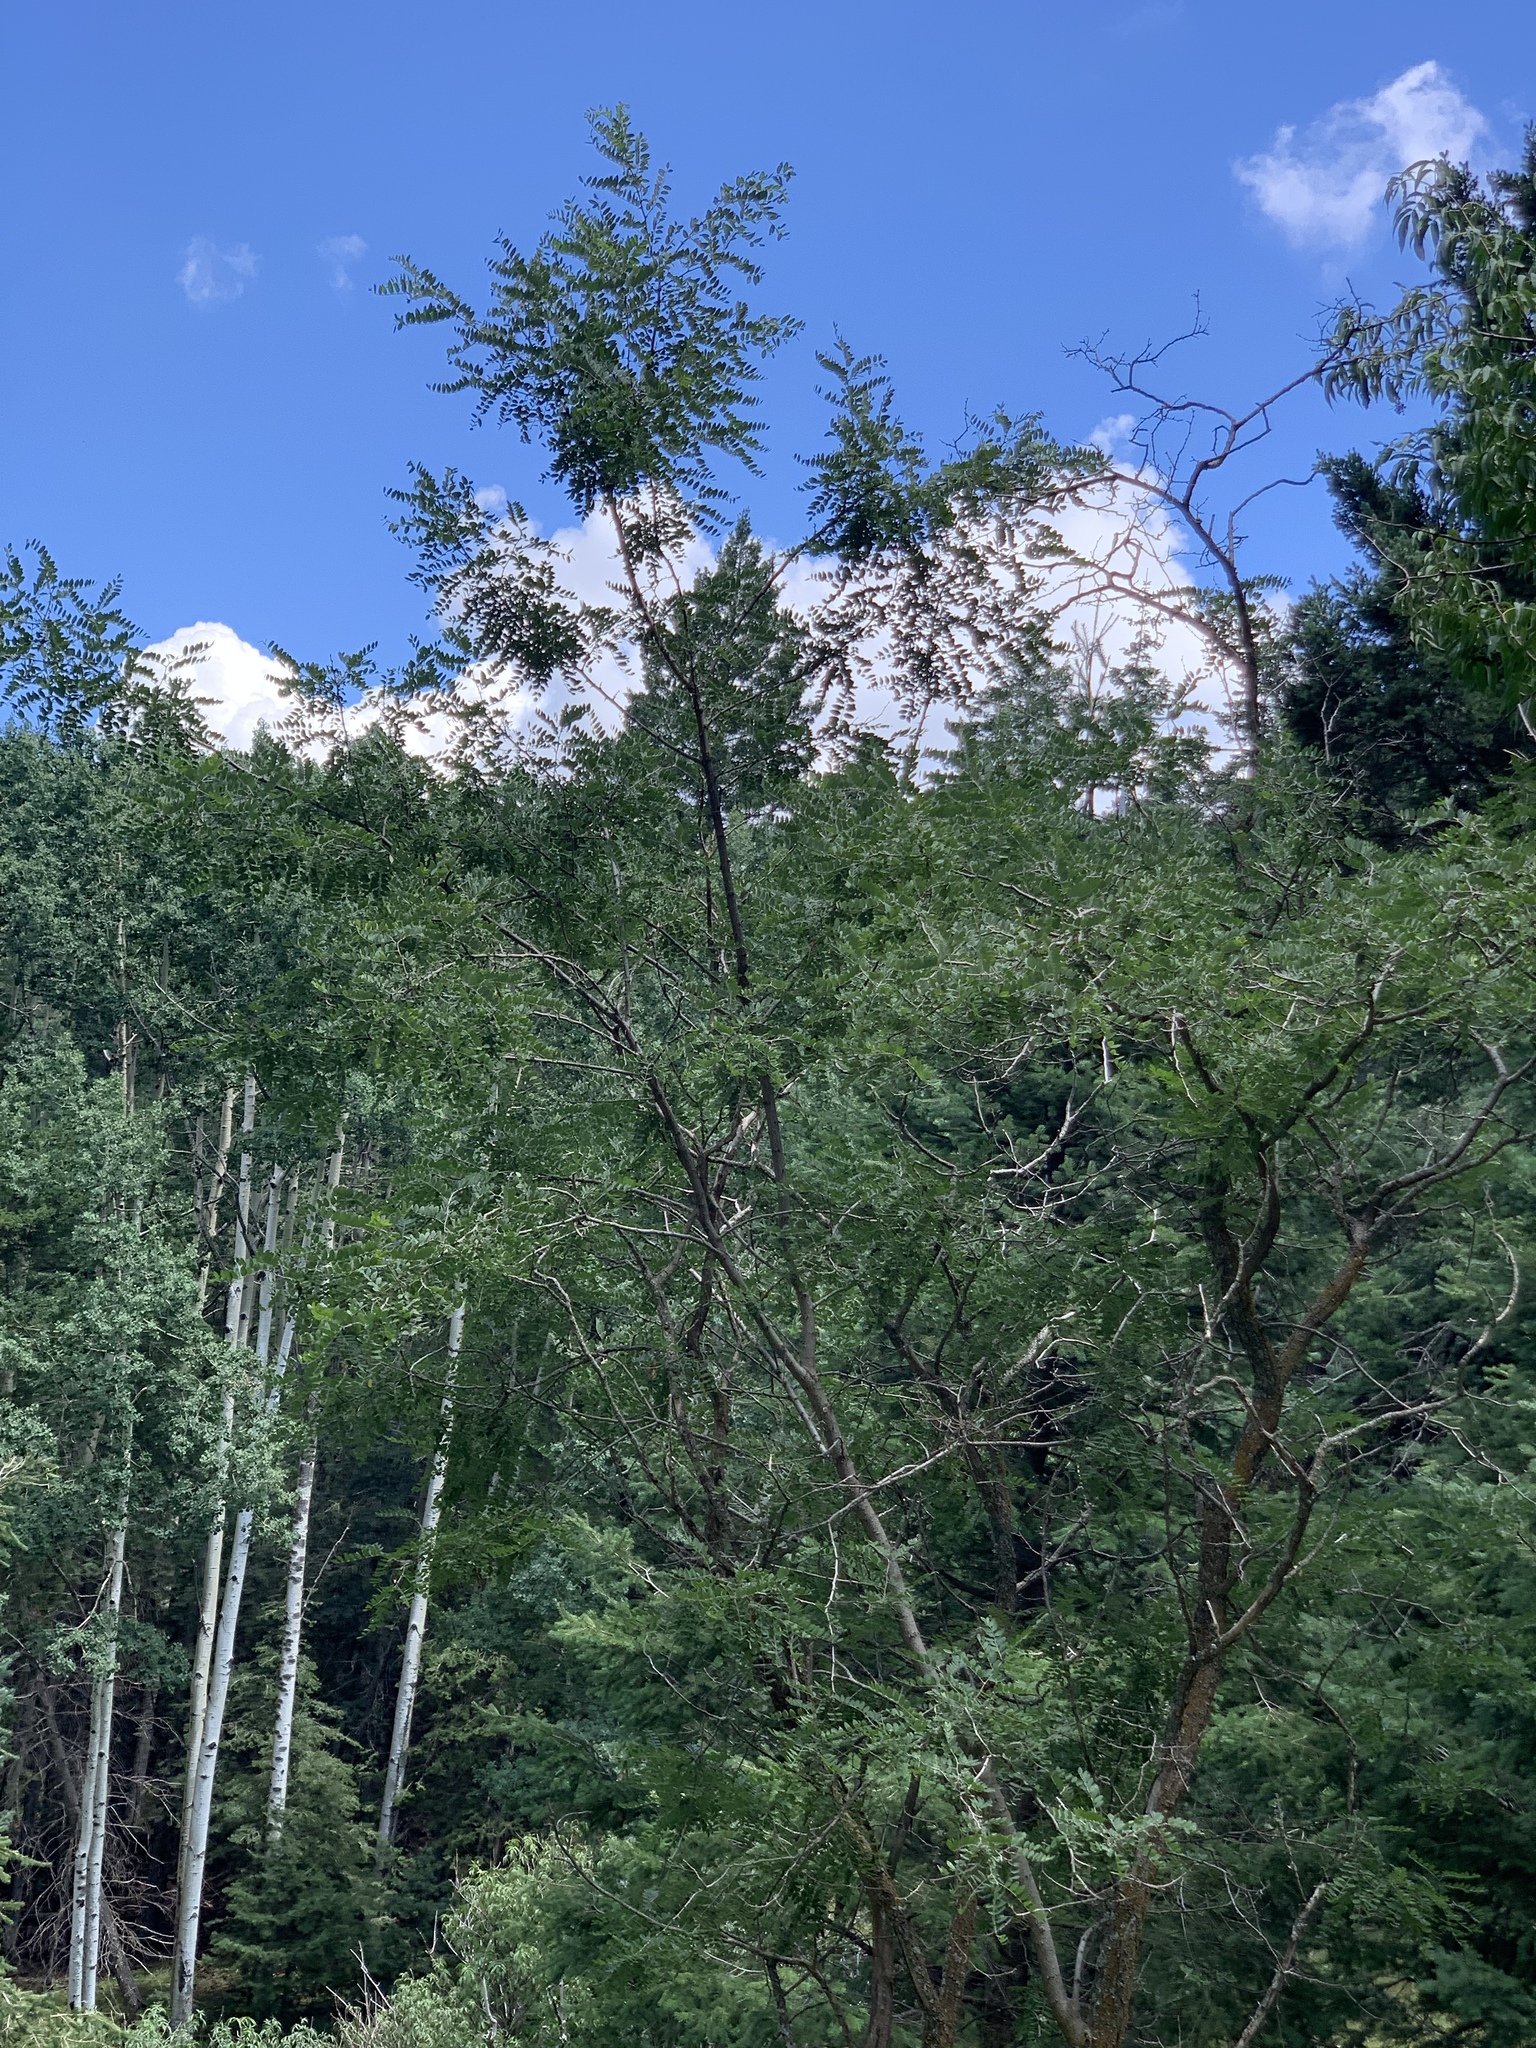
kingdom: Plantae
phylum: Tracheophyta
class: Magnoliopsida
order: Fabales
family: Fabaceae
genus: Robinia
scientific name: Robinia neomexicana
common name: New mexico locust
